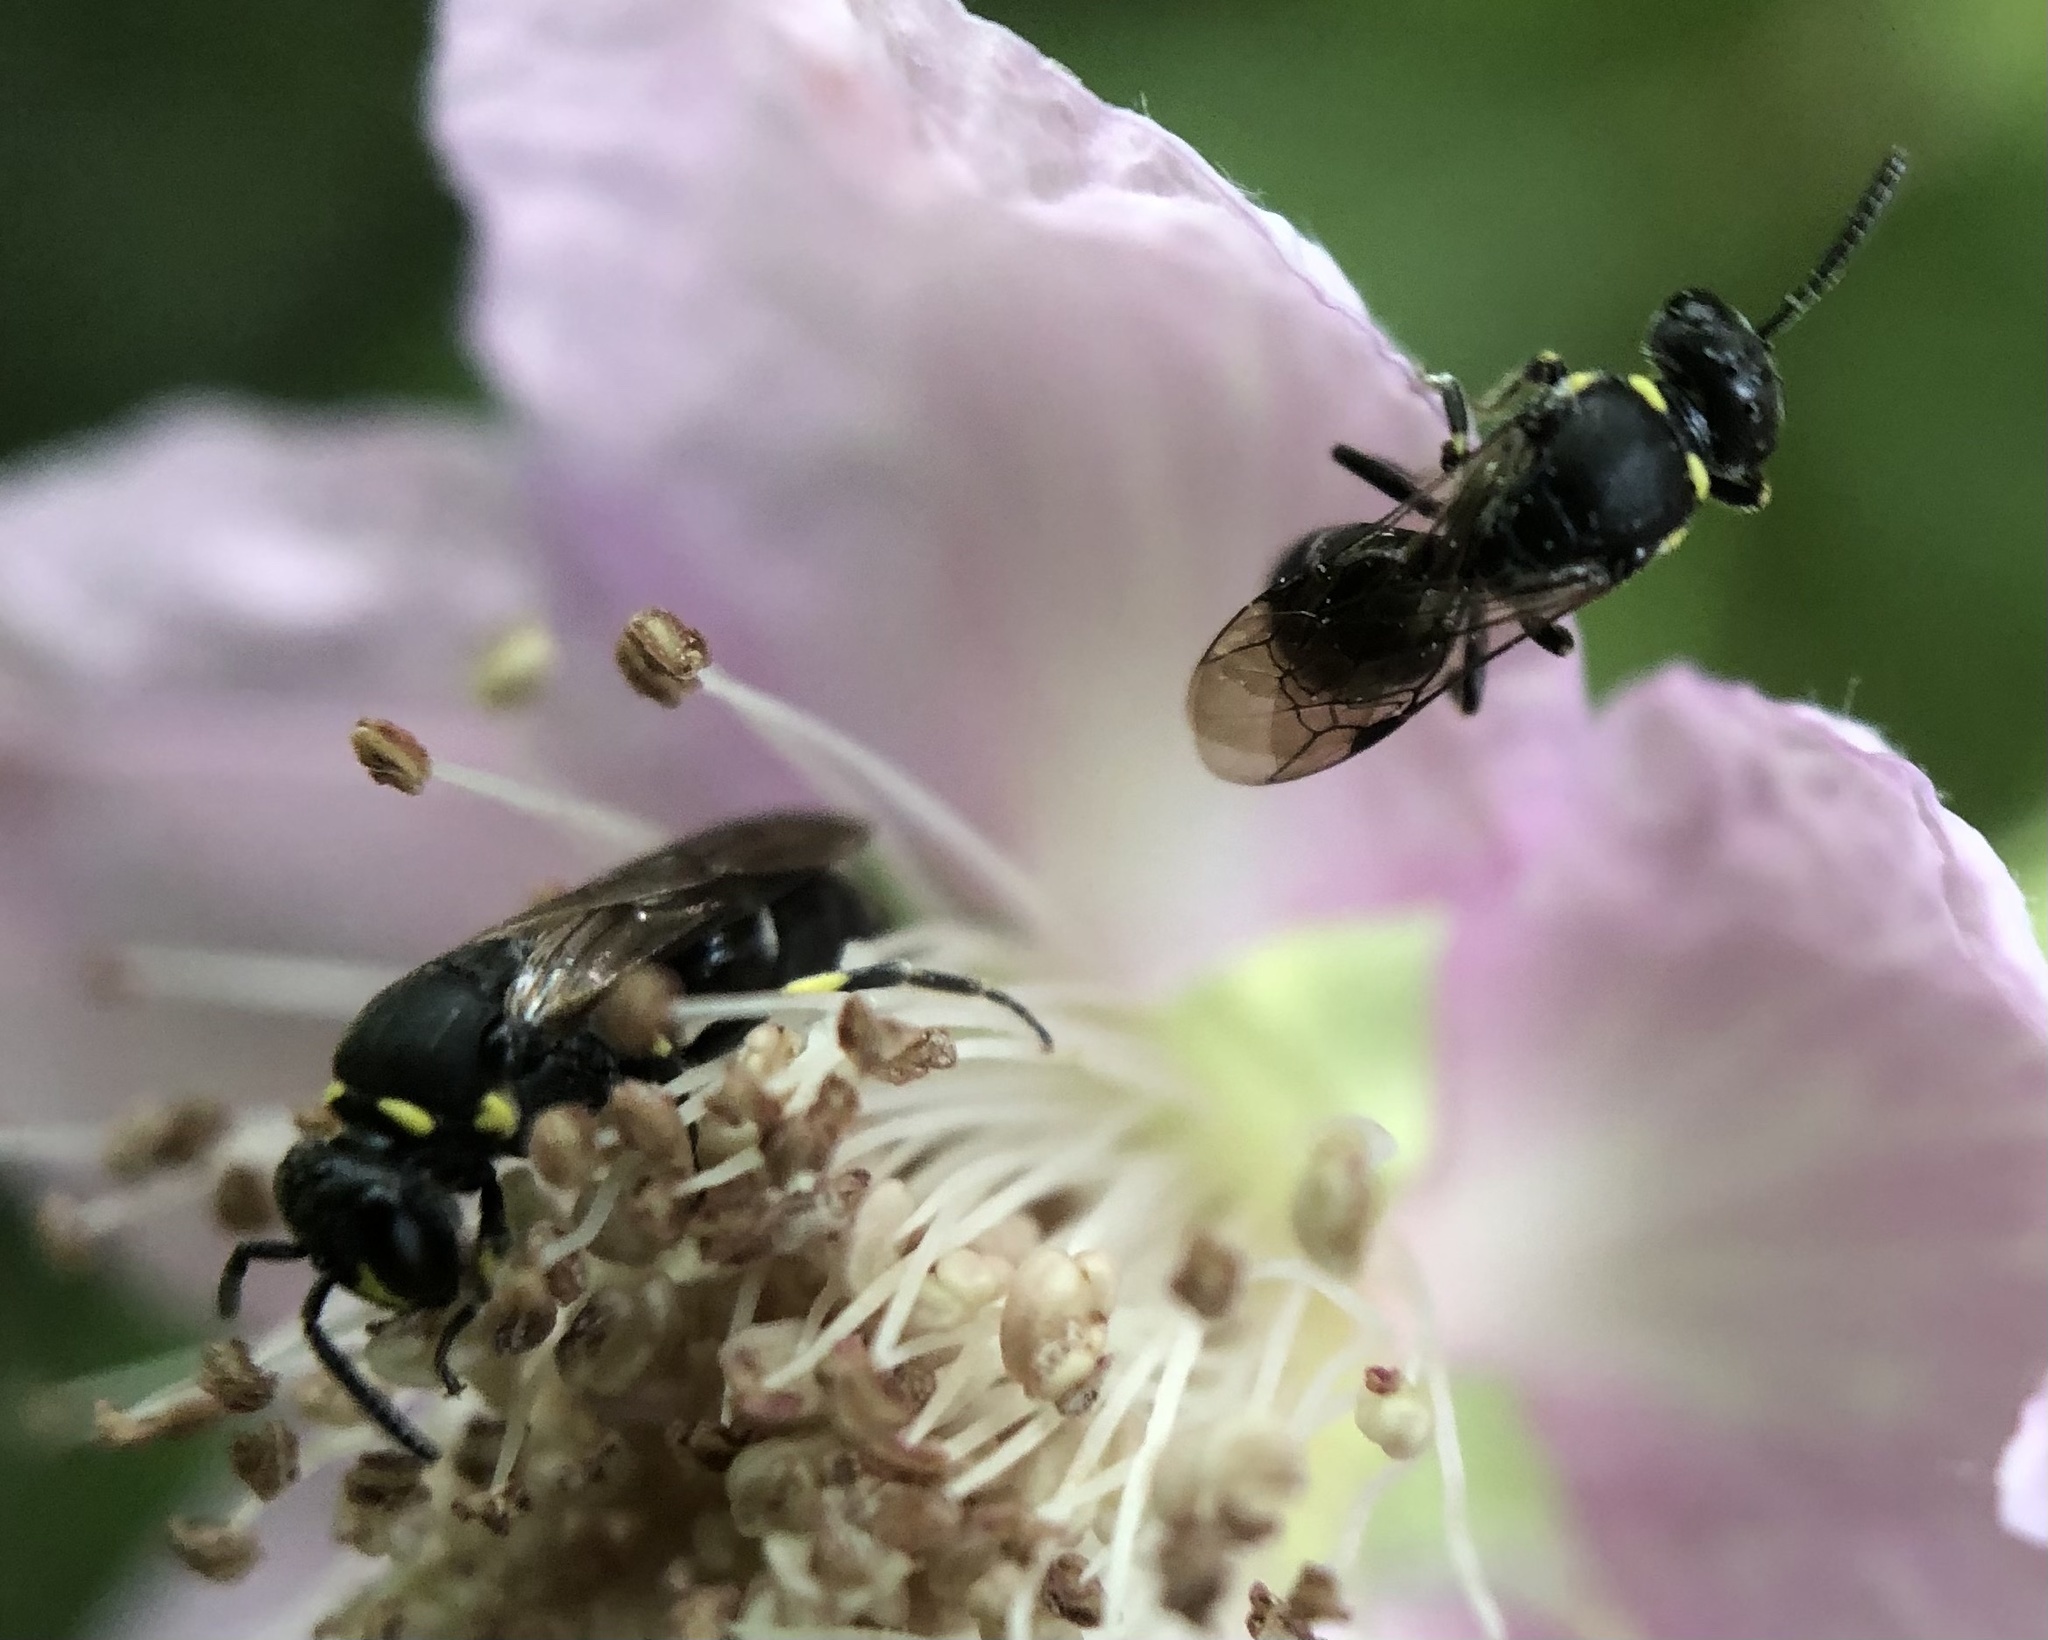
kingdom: Animalia
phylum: Arthropoda
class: Insecta
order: Hymenoptera
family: Colletidae
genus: Hylaeus
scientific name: Hylaeus modestus
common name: Yellow-faced bee
